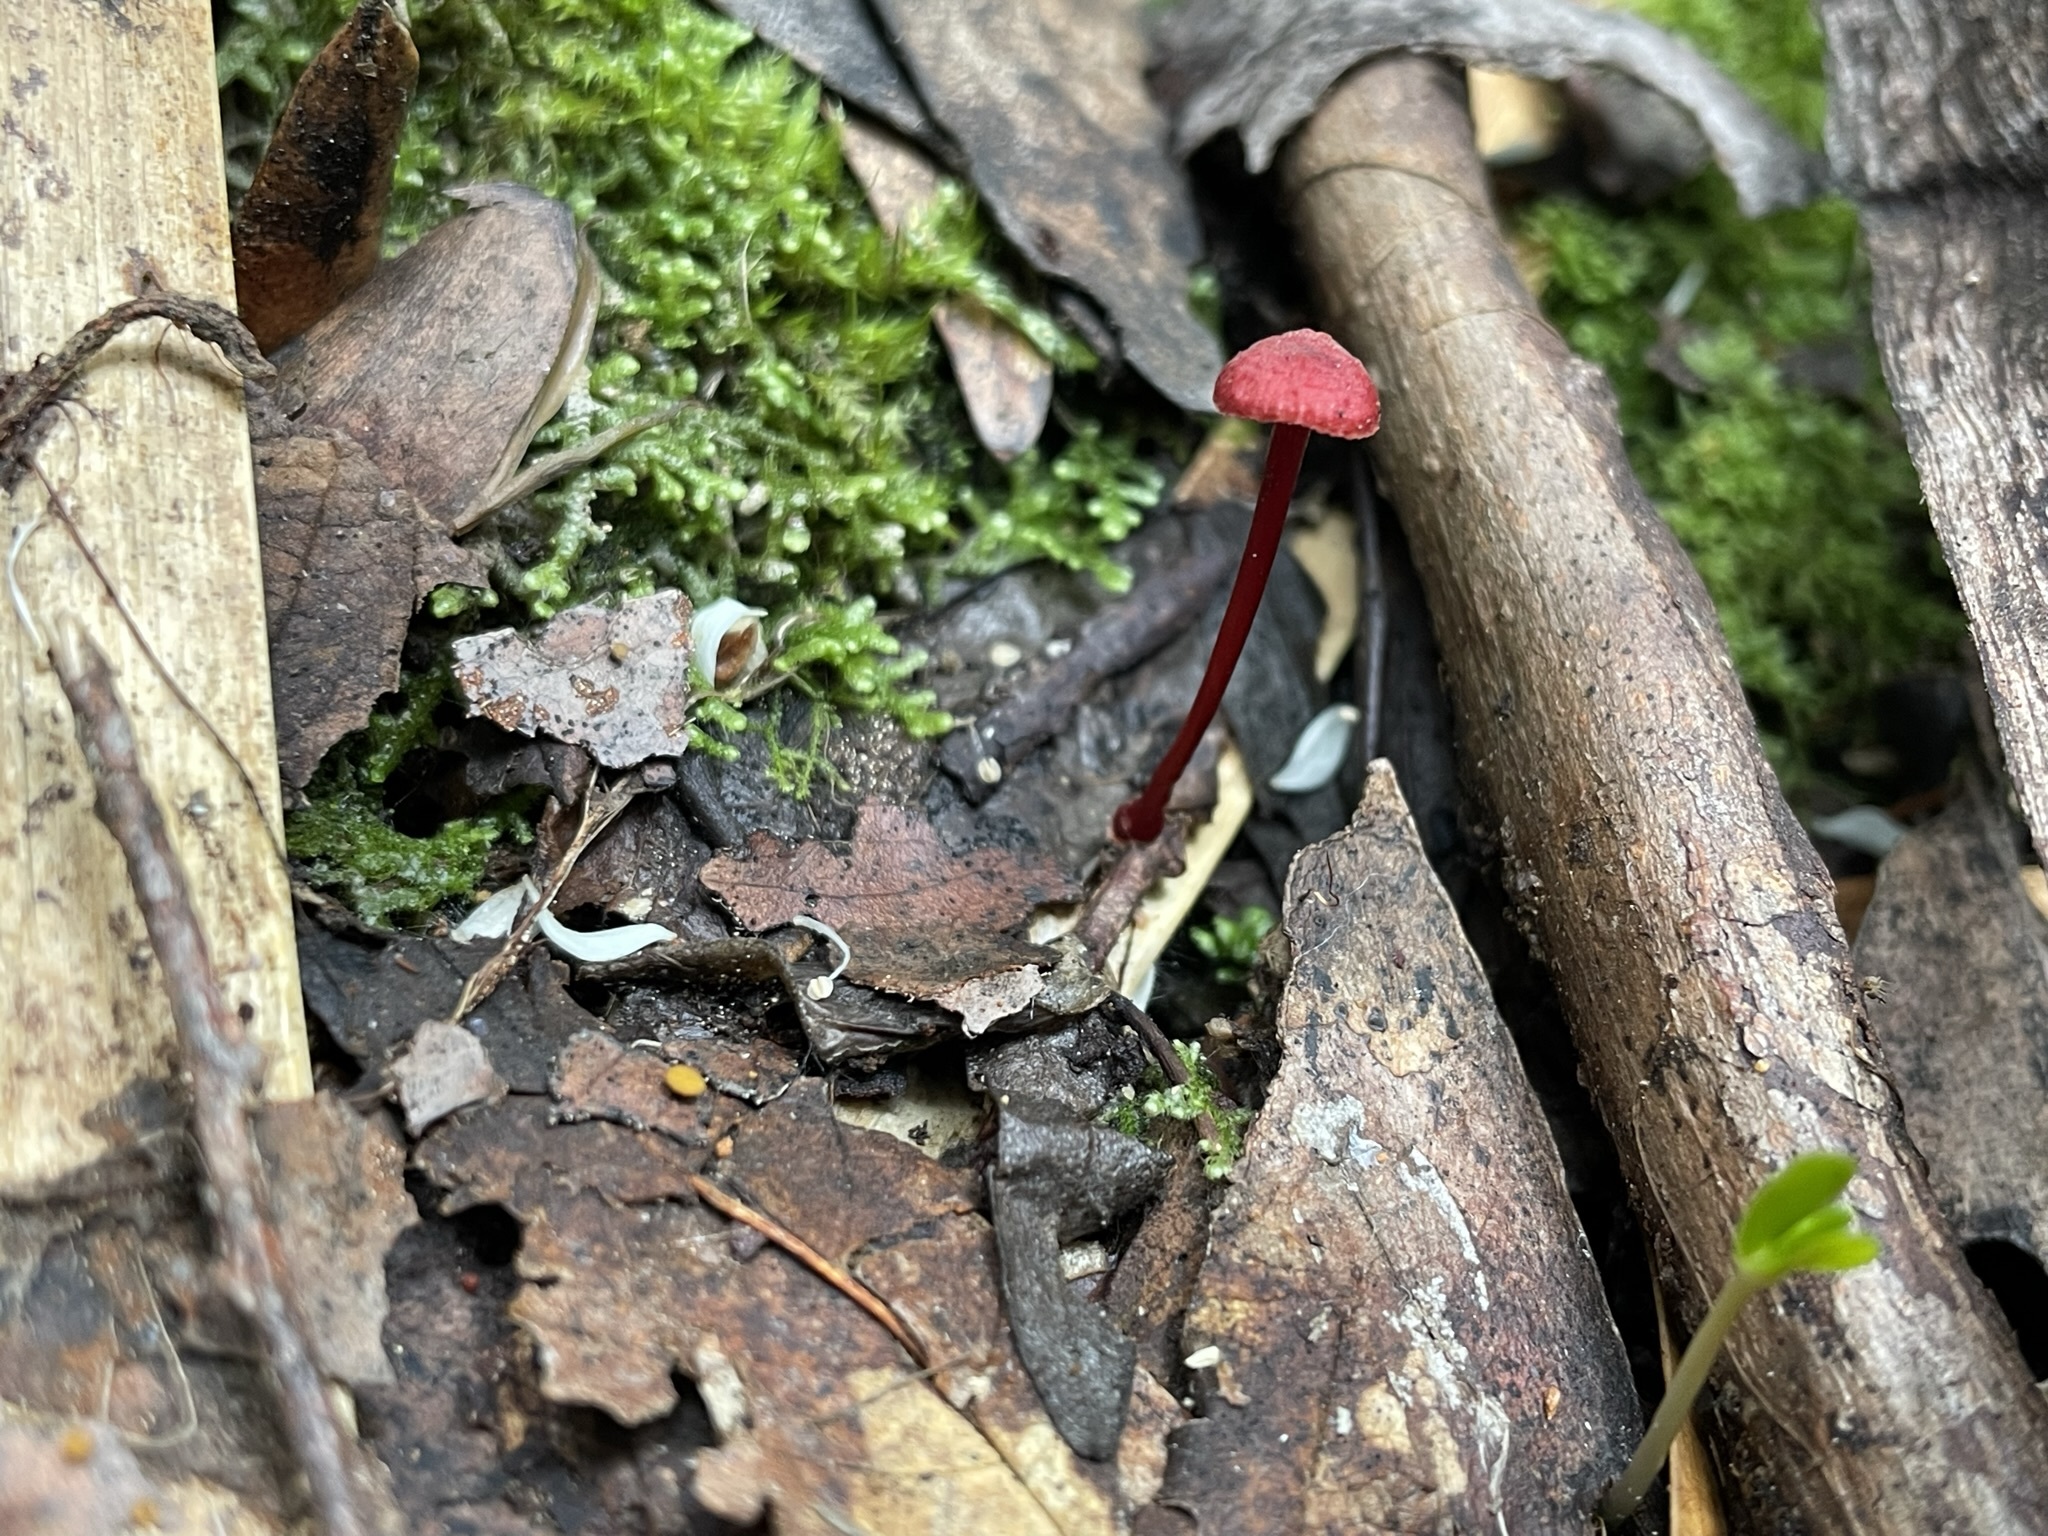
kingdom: Fungi
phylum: Basidiomycota
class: Agaricomycetes
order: Agaricales
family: Mycenaceae
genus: Cruentomycena
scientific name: Cruentomycena viscidocruenta
